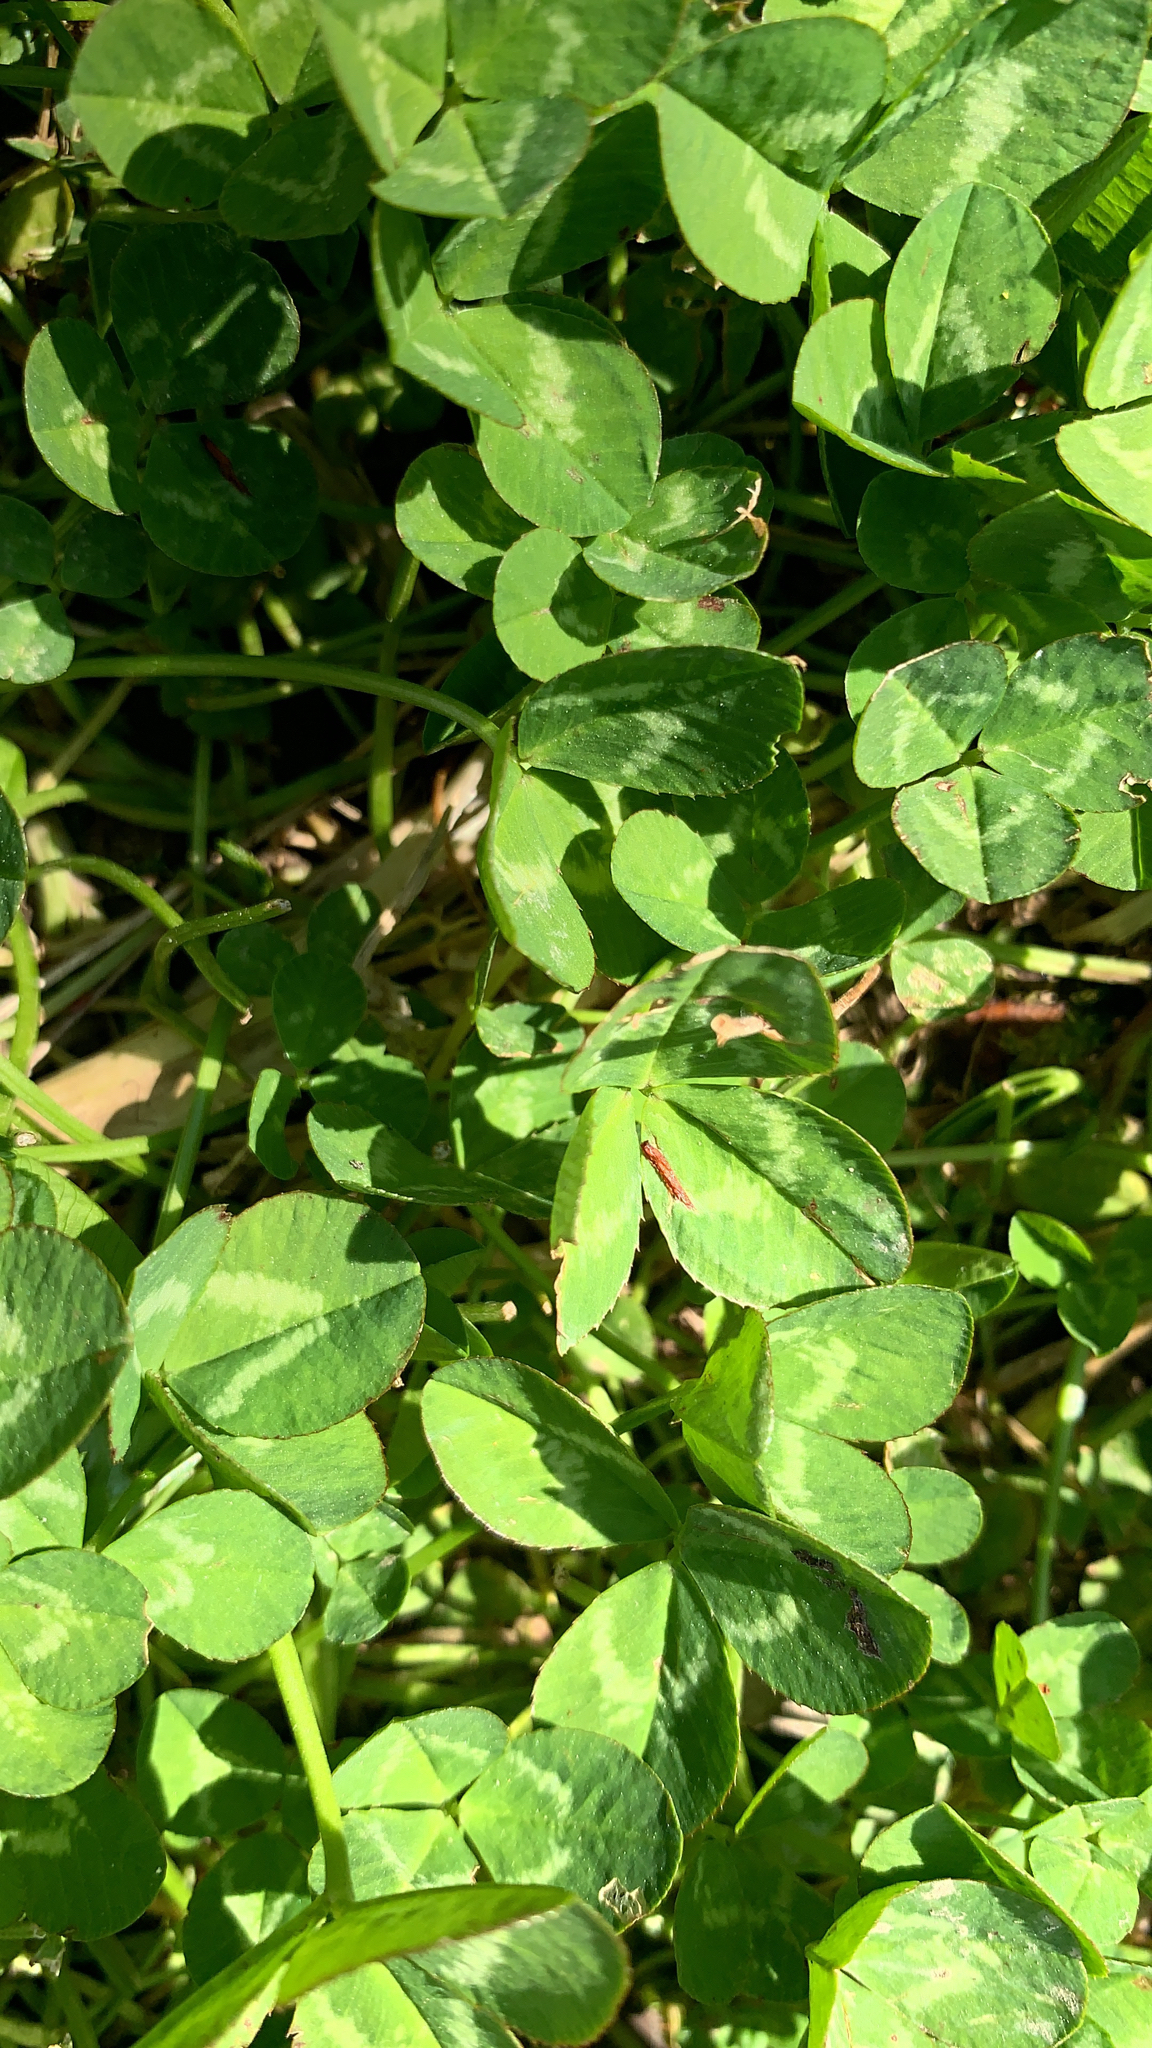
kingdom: Plantae
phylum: Tracheophyta
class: Magnoliopsida
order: Fabales
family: Fabaceae
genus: Trifolium
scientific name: Trifolium repens
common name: White clover
